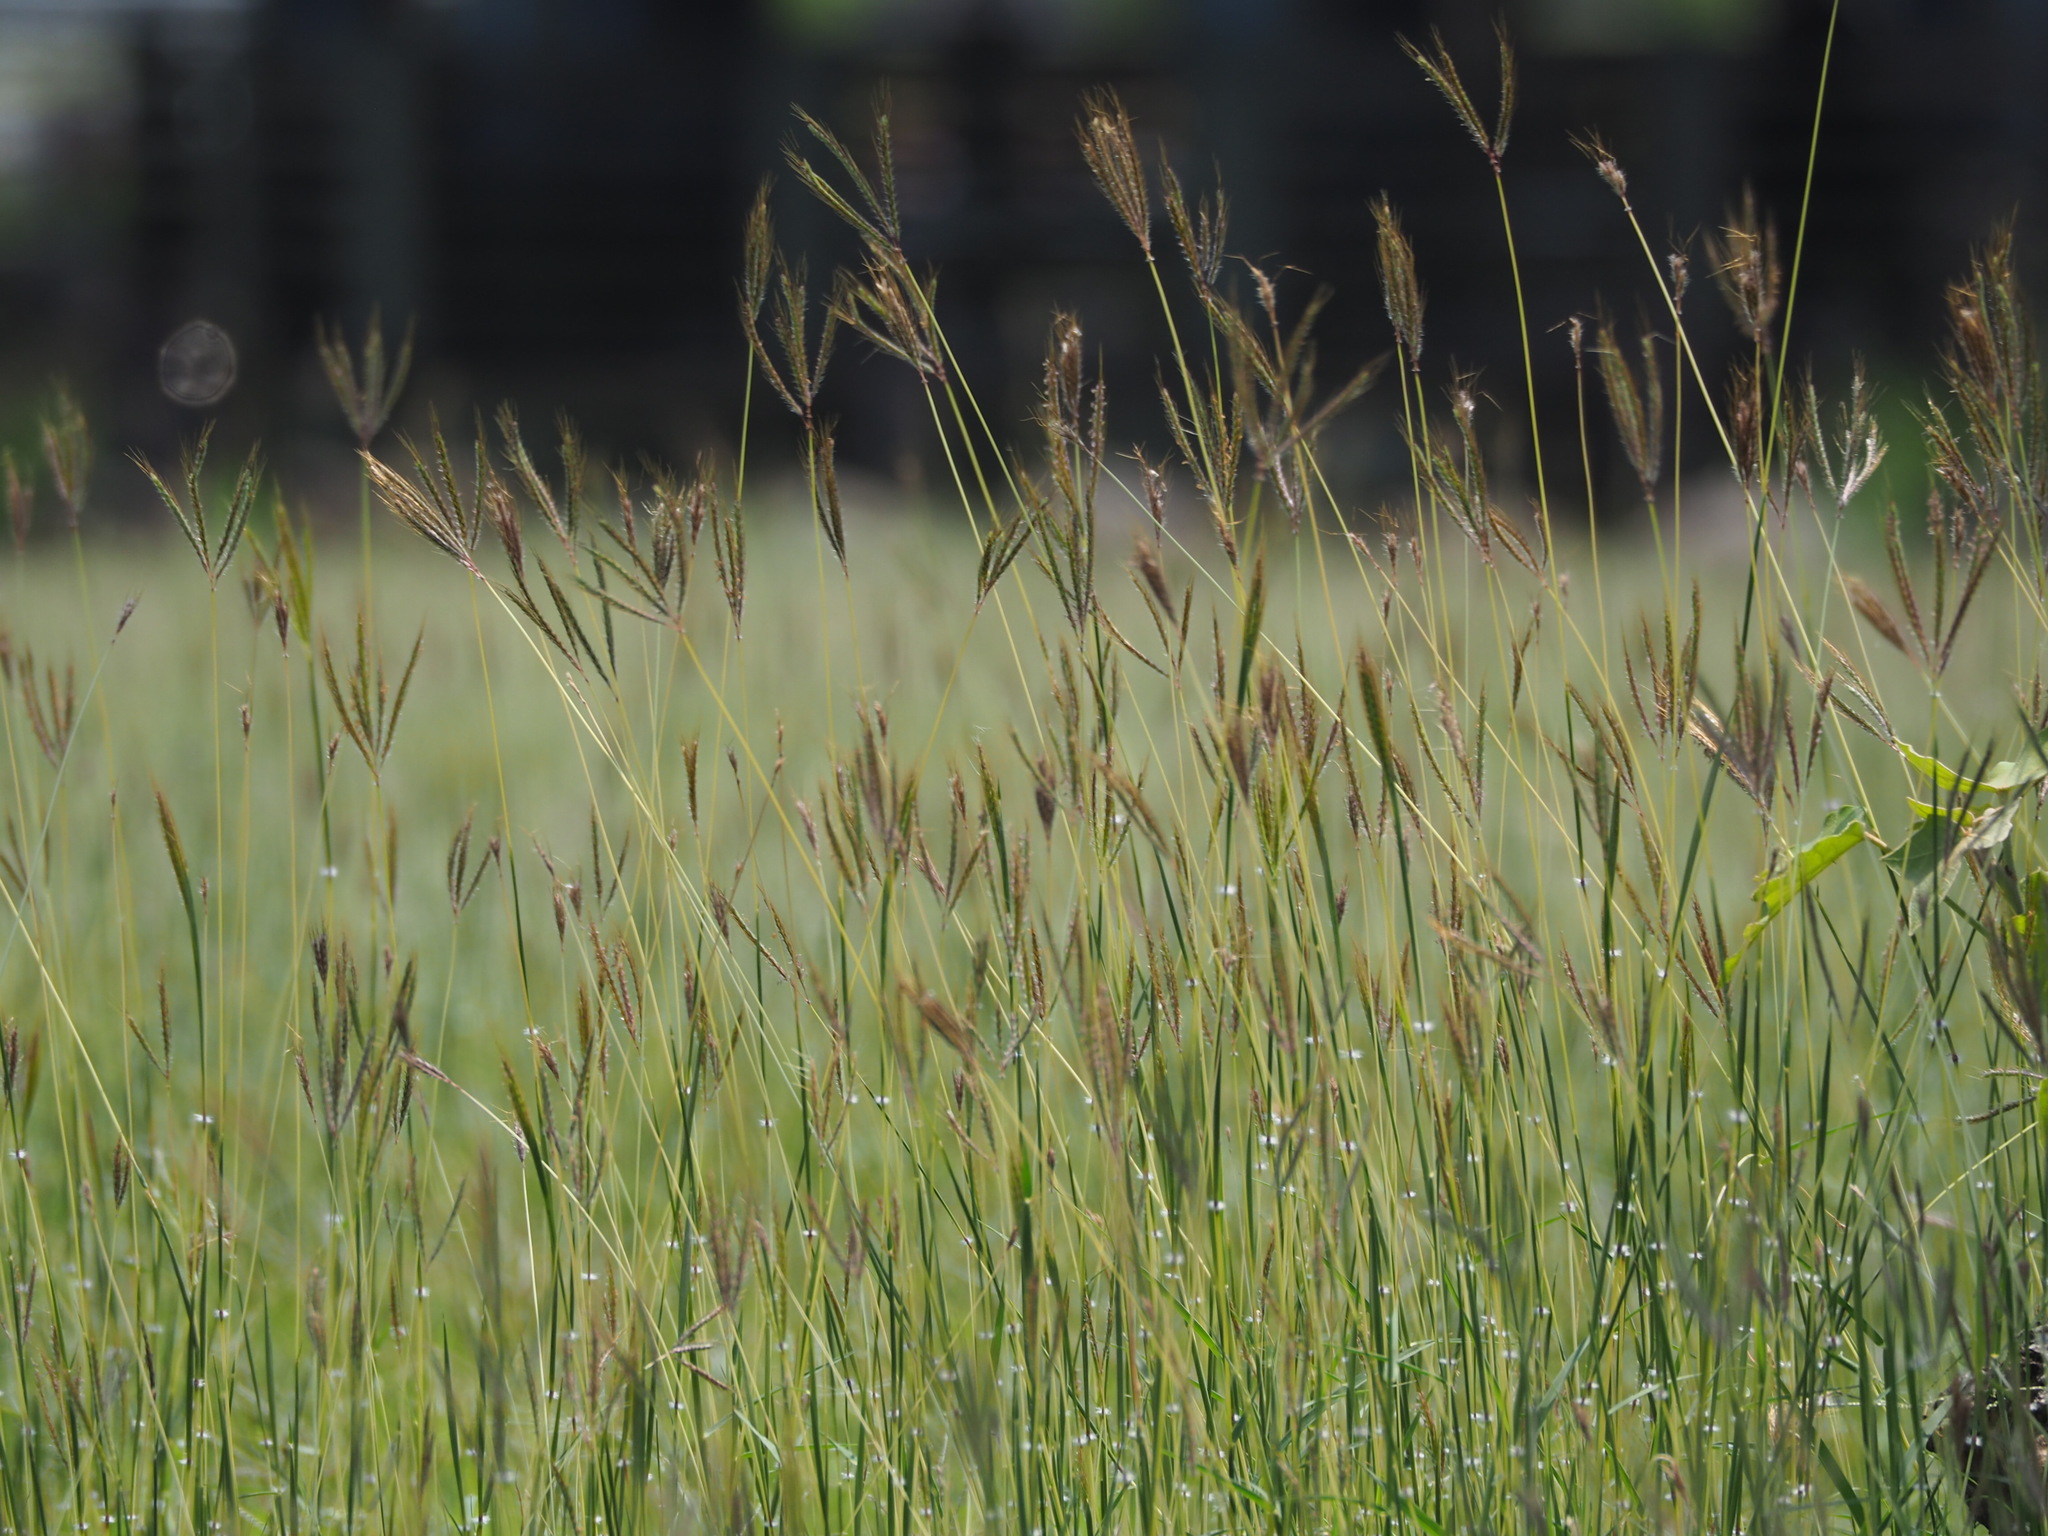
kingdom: Plantae
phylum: Tracheophyta
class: Liliopsida
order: Poales
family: Poaceae
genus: Dichanthium
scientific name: Dichanthium annulatum
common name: Kleberg's bluestem
